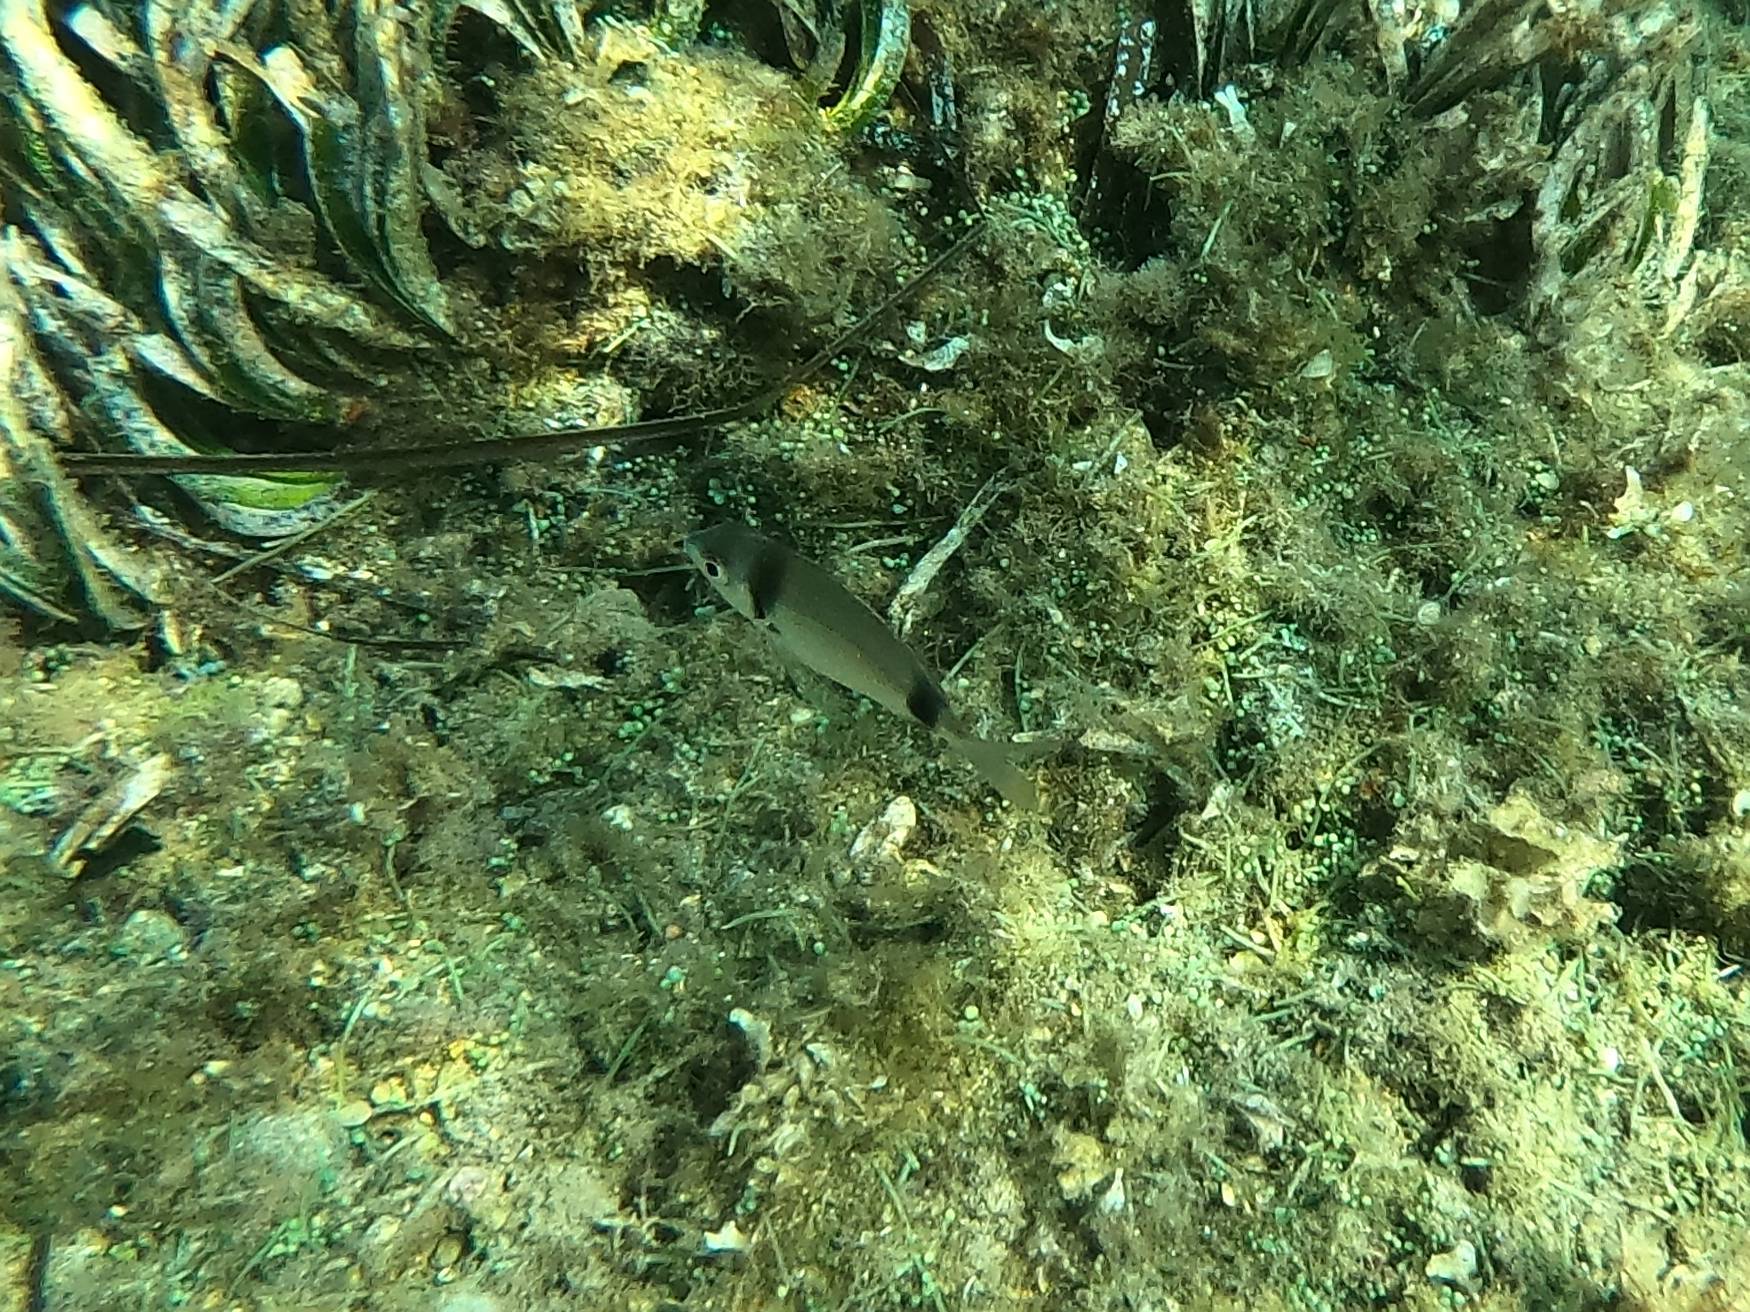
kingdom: Animalia
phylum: Chordata
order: Perciformes
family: Sparidae
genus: Diplodus
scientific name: Diplodus vulgaris
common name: Common two-banded seabream
